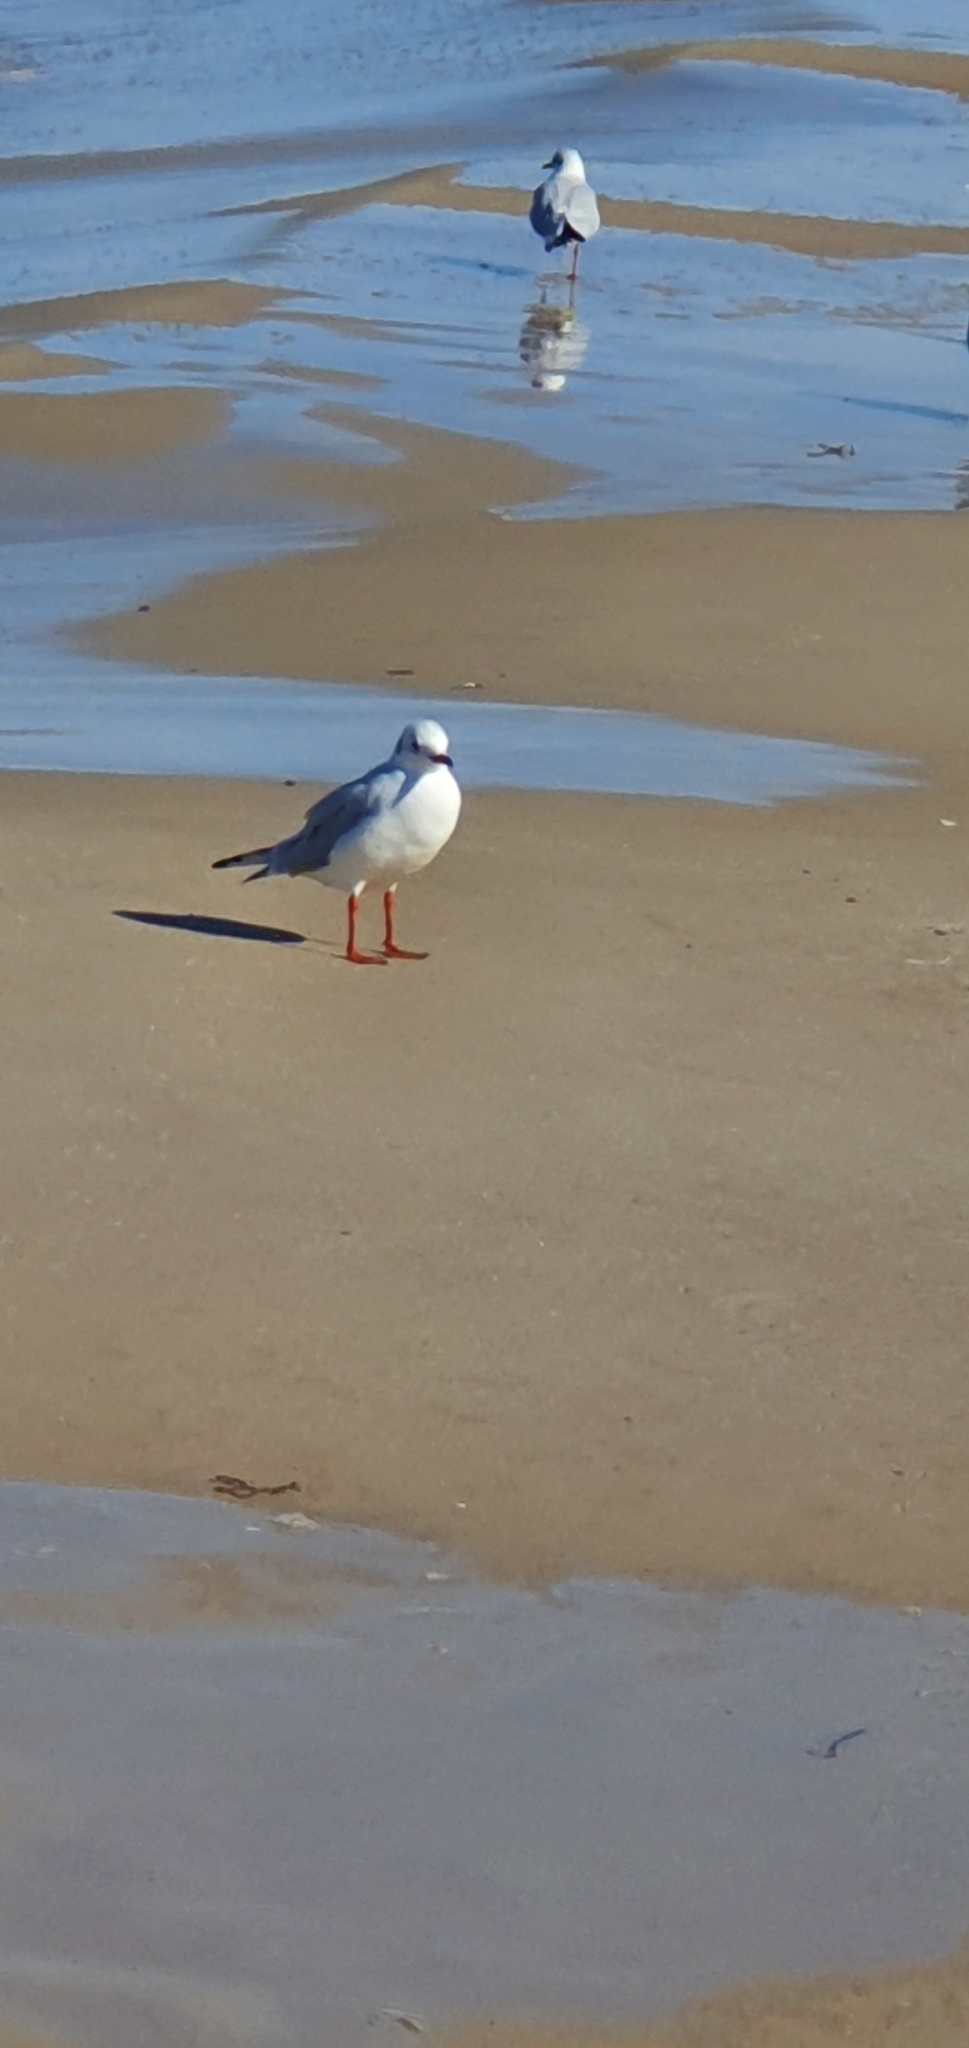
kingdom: Animalia
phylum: Chordata
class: Aves
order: Charadriiformes
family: Laridae
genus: Chroicocephalus
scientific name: Chroicocephalus ridibundus
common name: Black-headed gull
